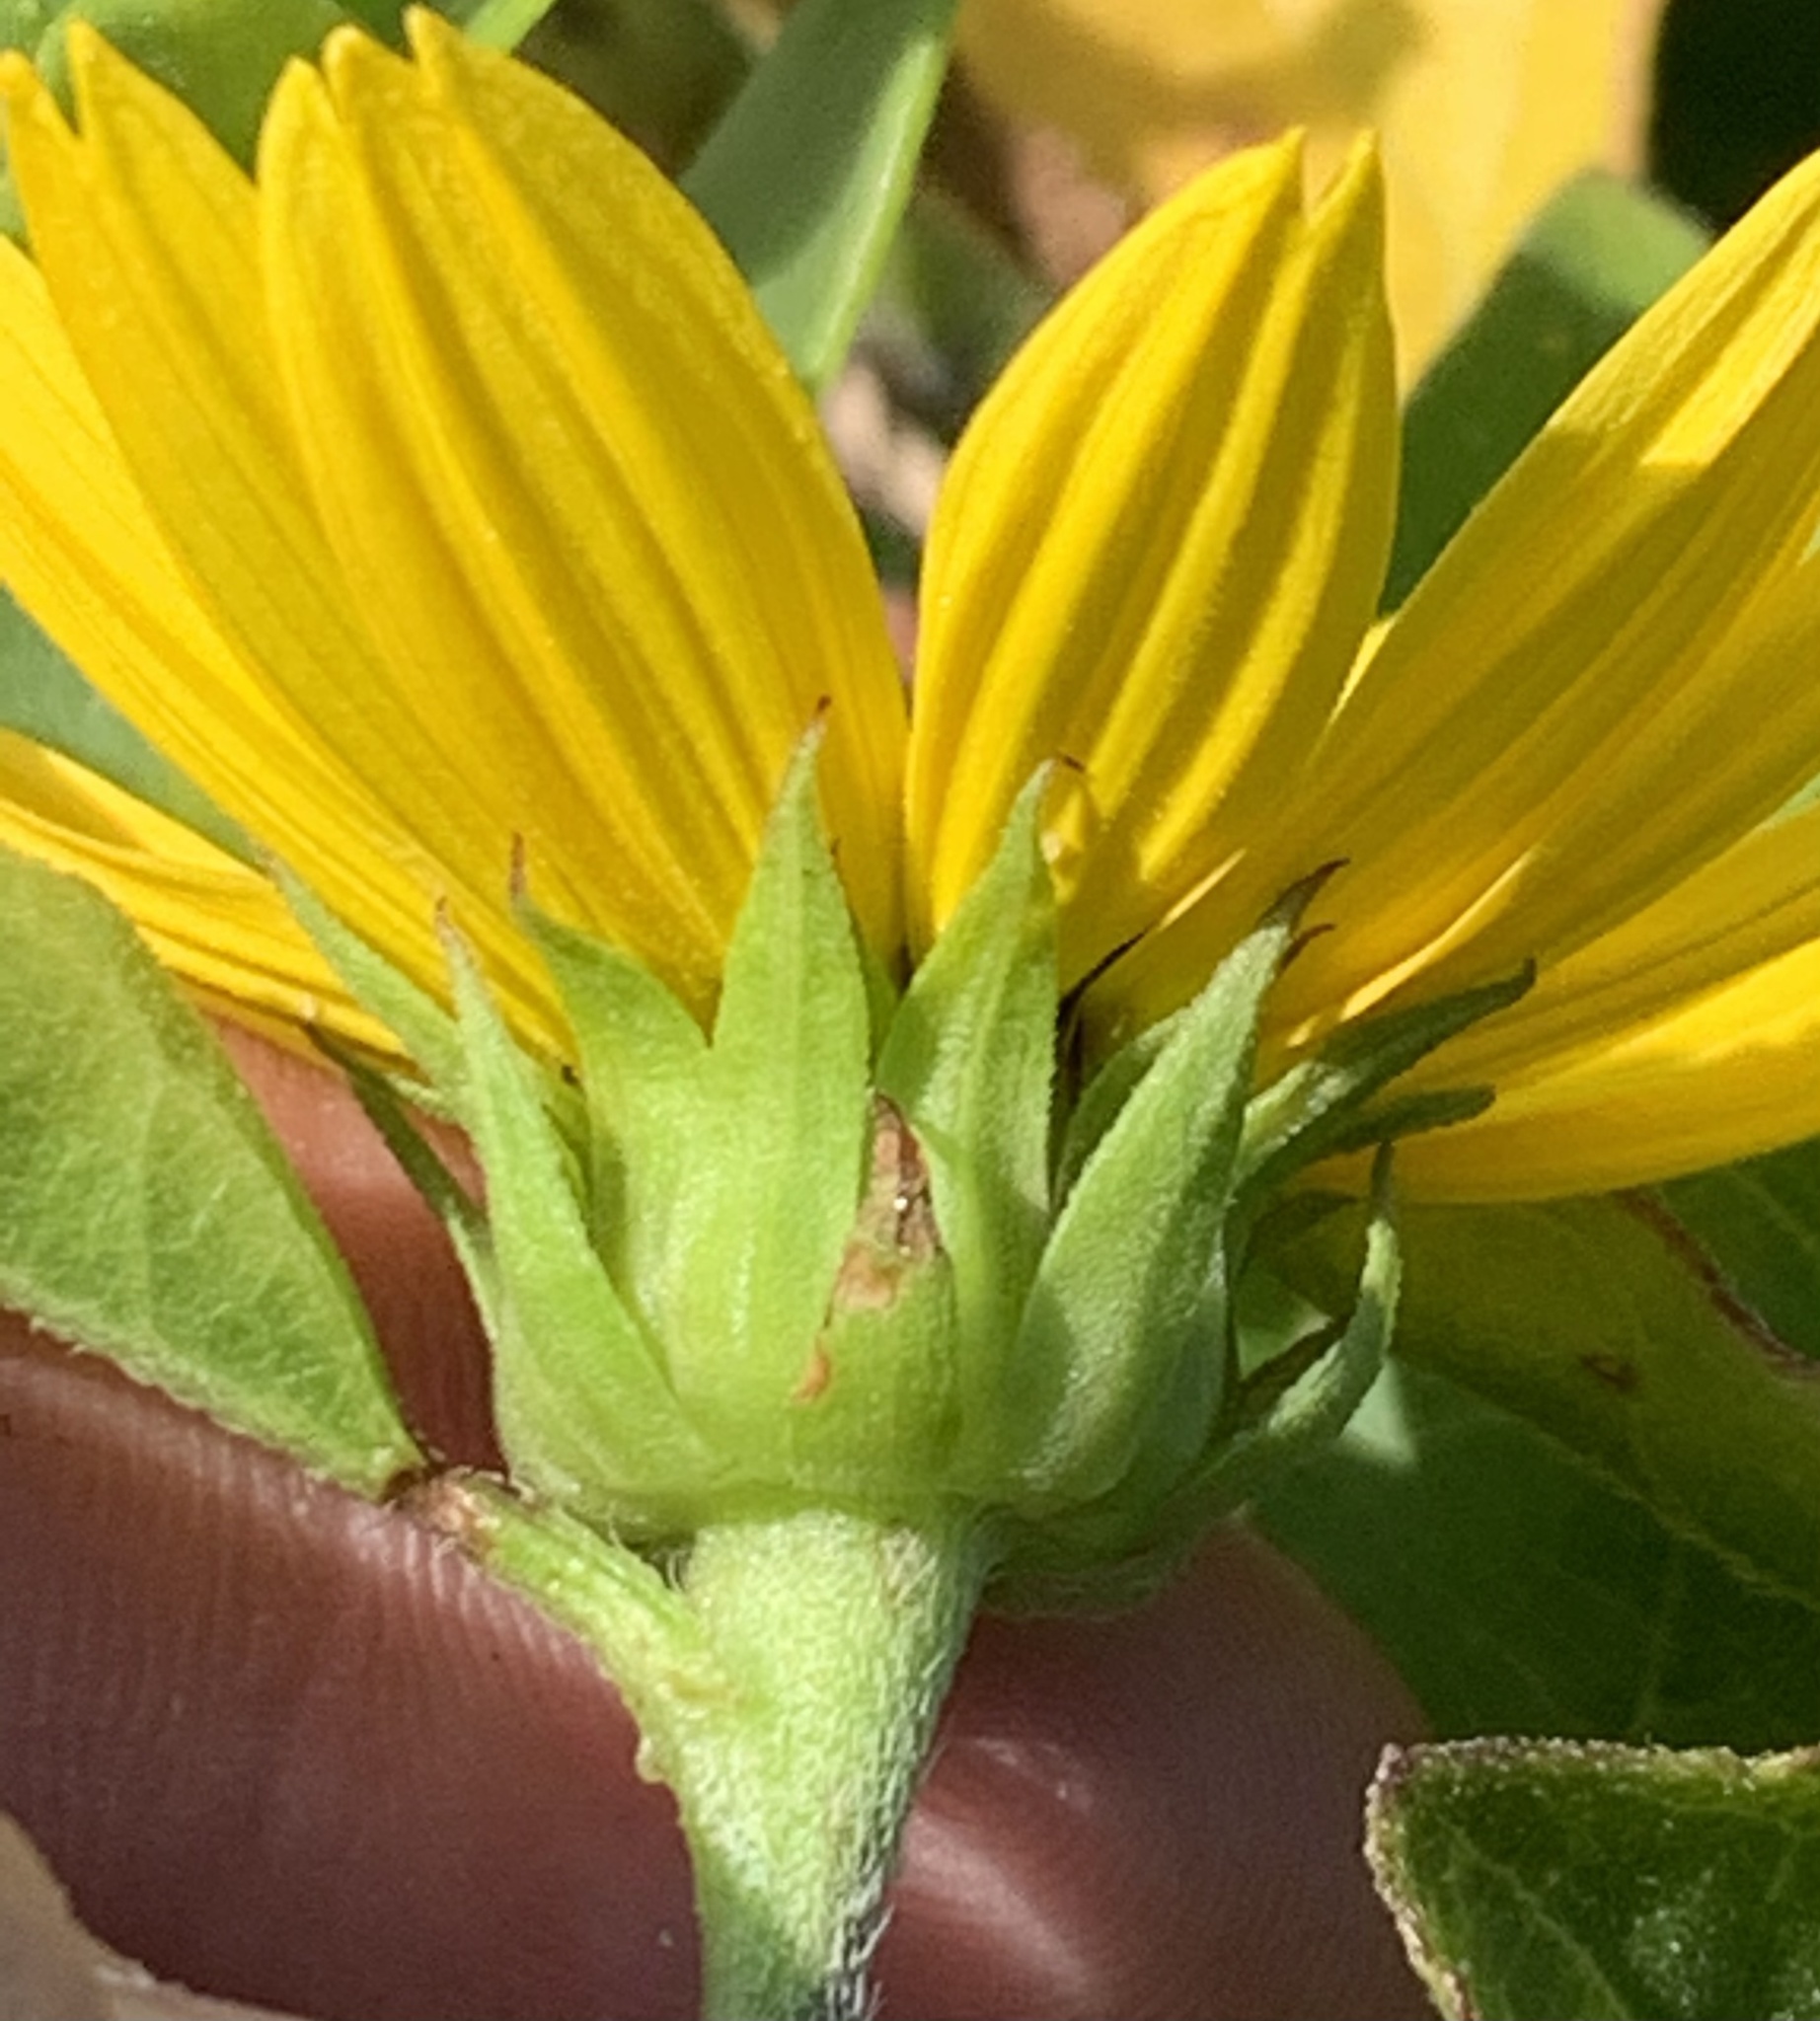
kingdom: Plantae
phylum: Tracheophyta
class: Magnoliopsida
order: Asterales
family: Asteraceae
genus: Helianthus
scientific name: Helianthus debilis
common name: Weak sunflower
